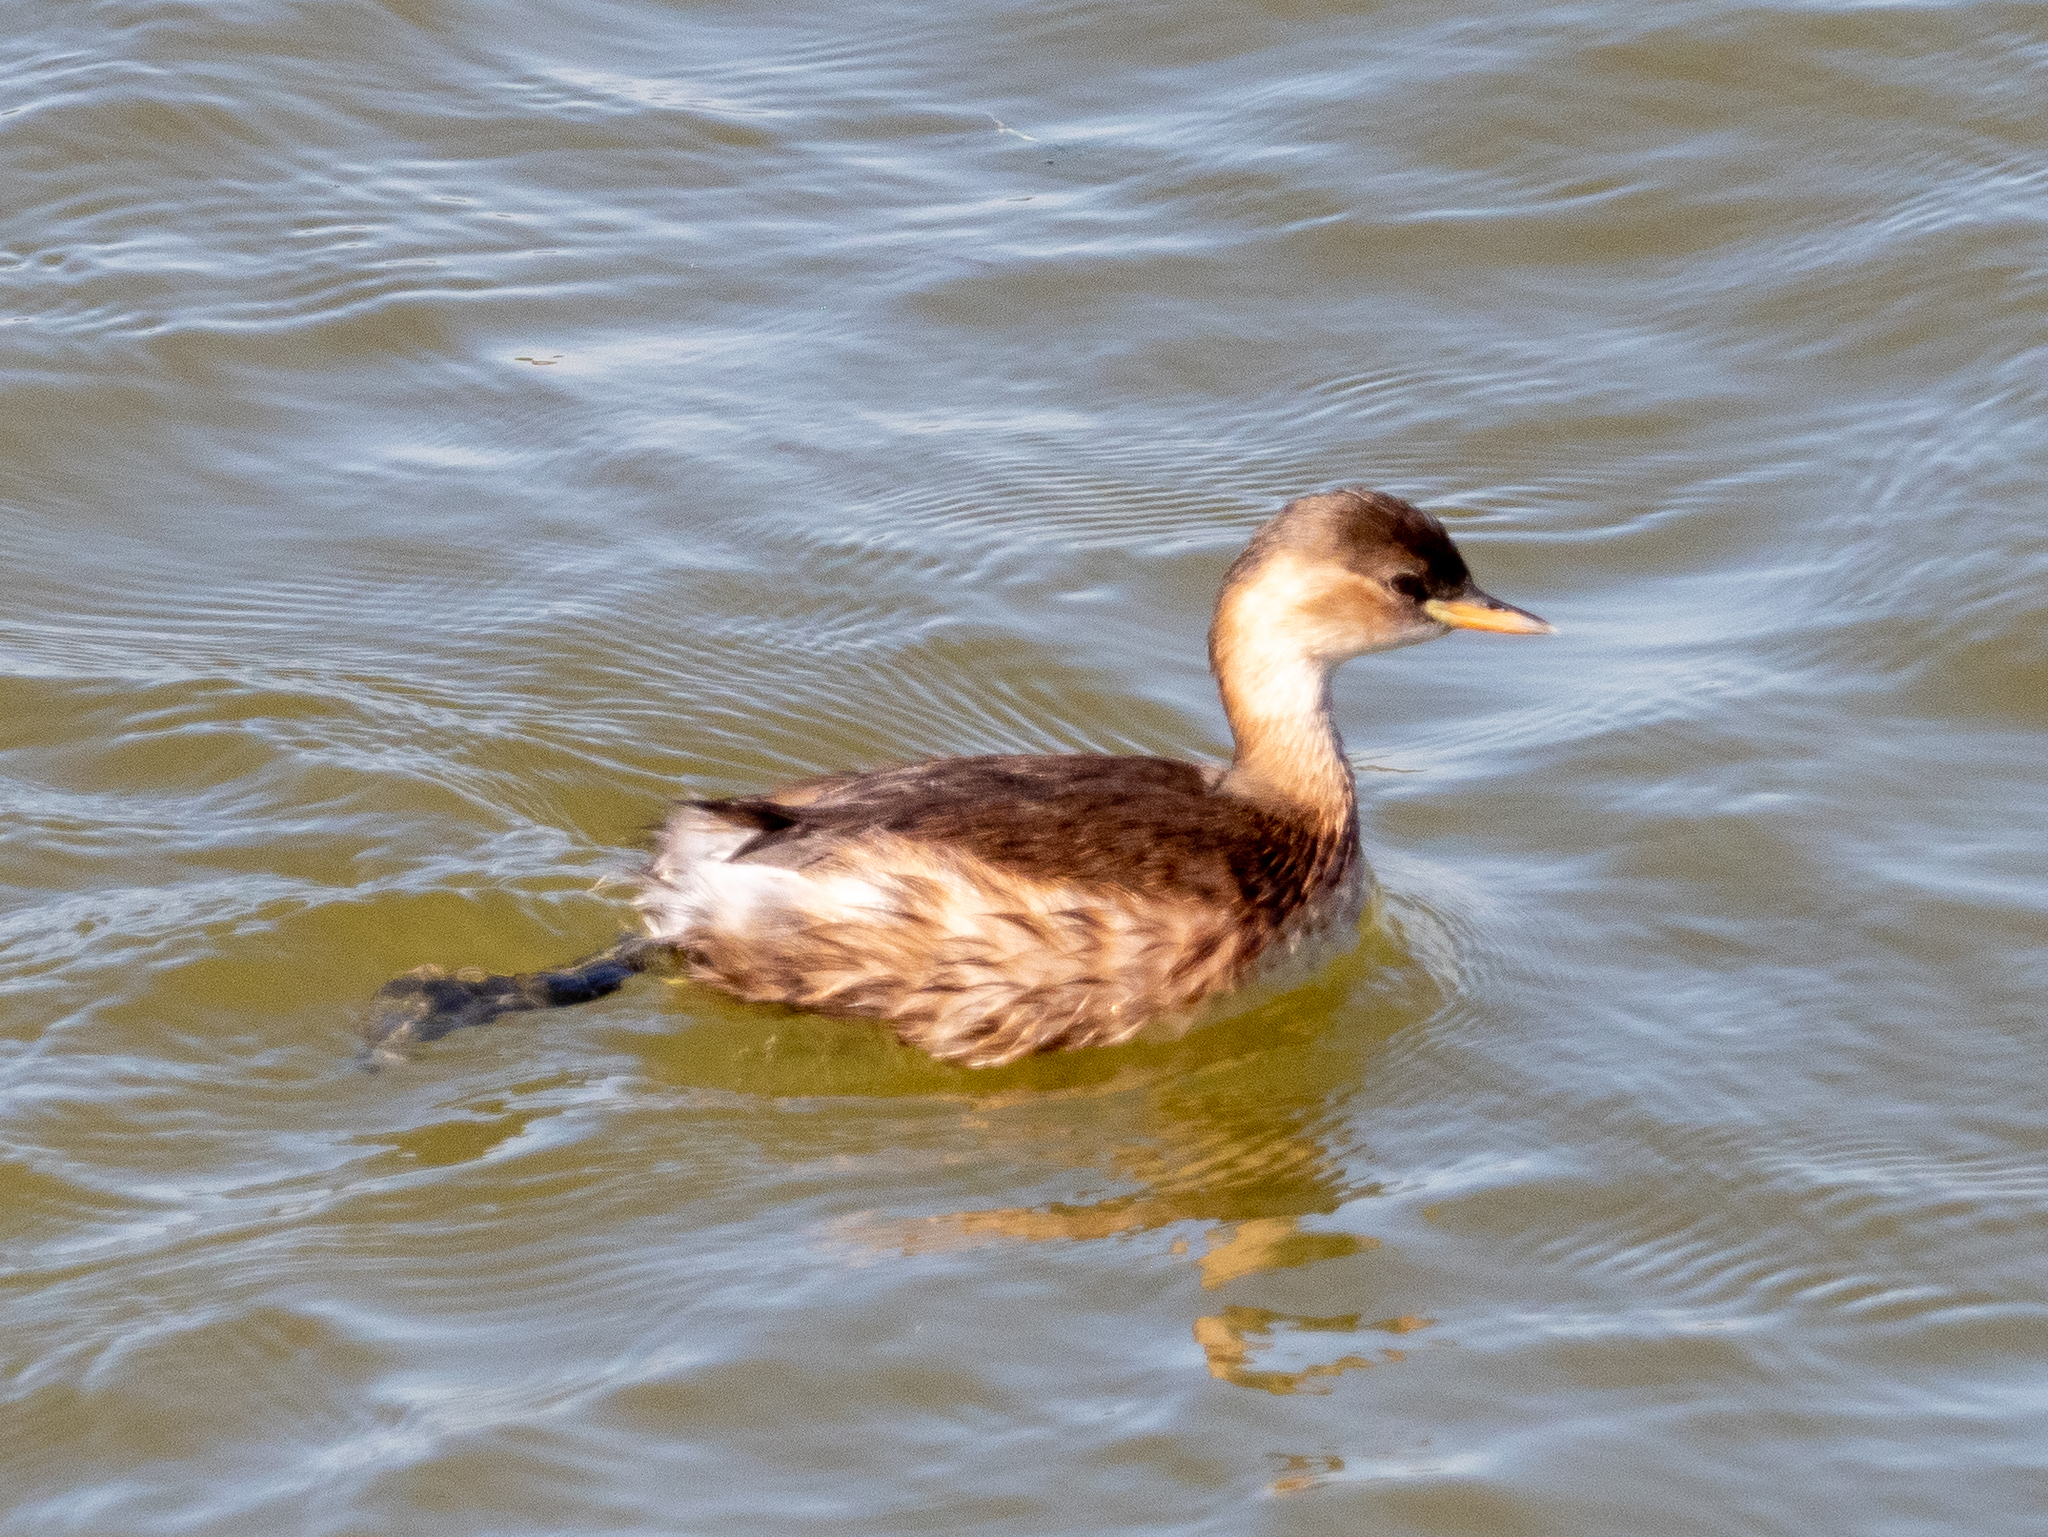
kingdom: Animalia
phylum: Chordata
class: Aves
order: Podicipediformes
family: Podicipedidae
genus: Tachybaptus
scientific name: Tachybaptus ruficollis
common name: Little grebe
